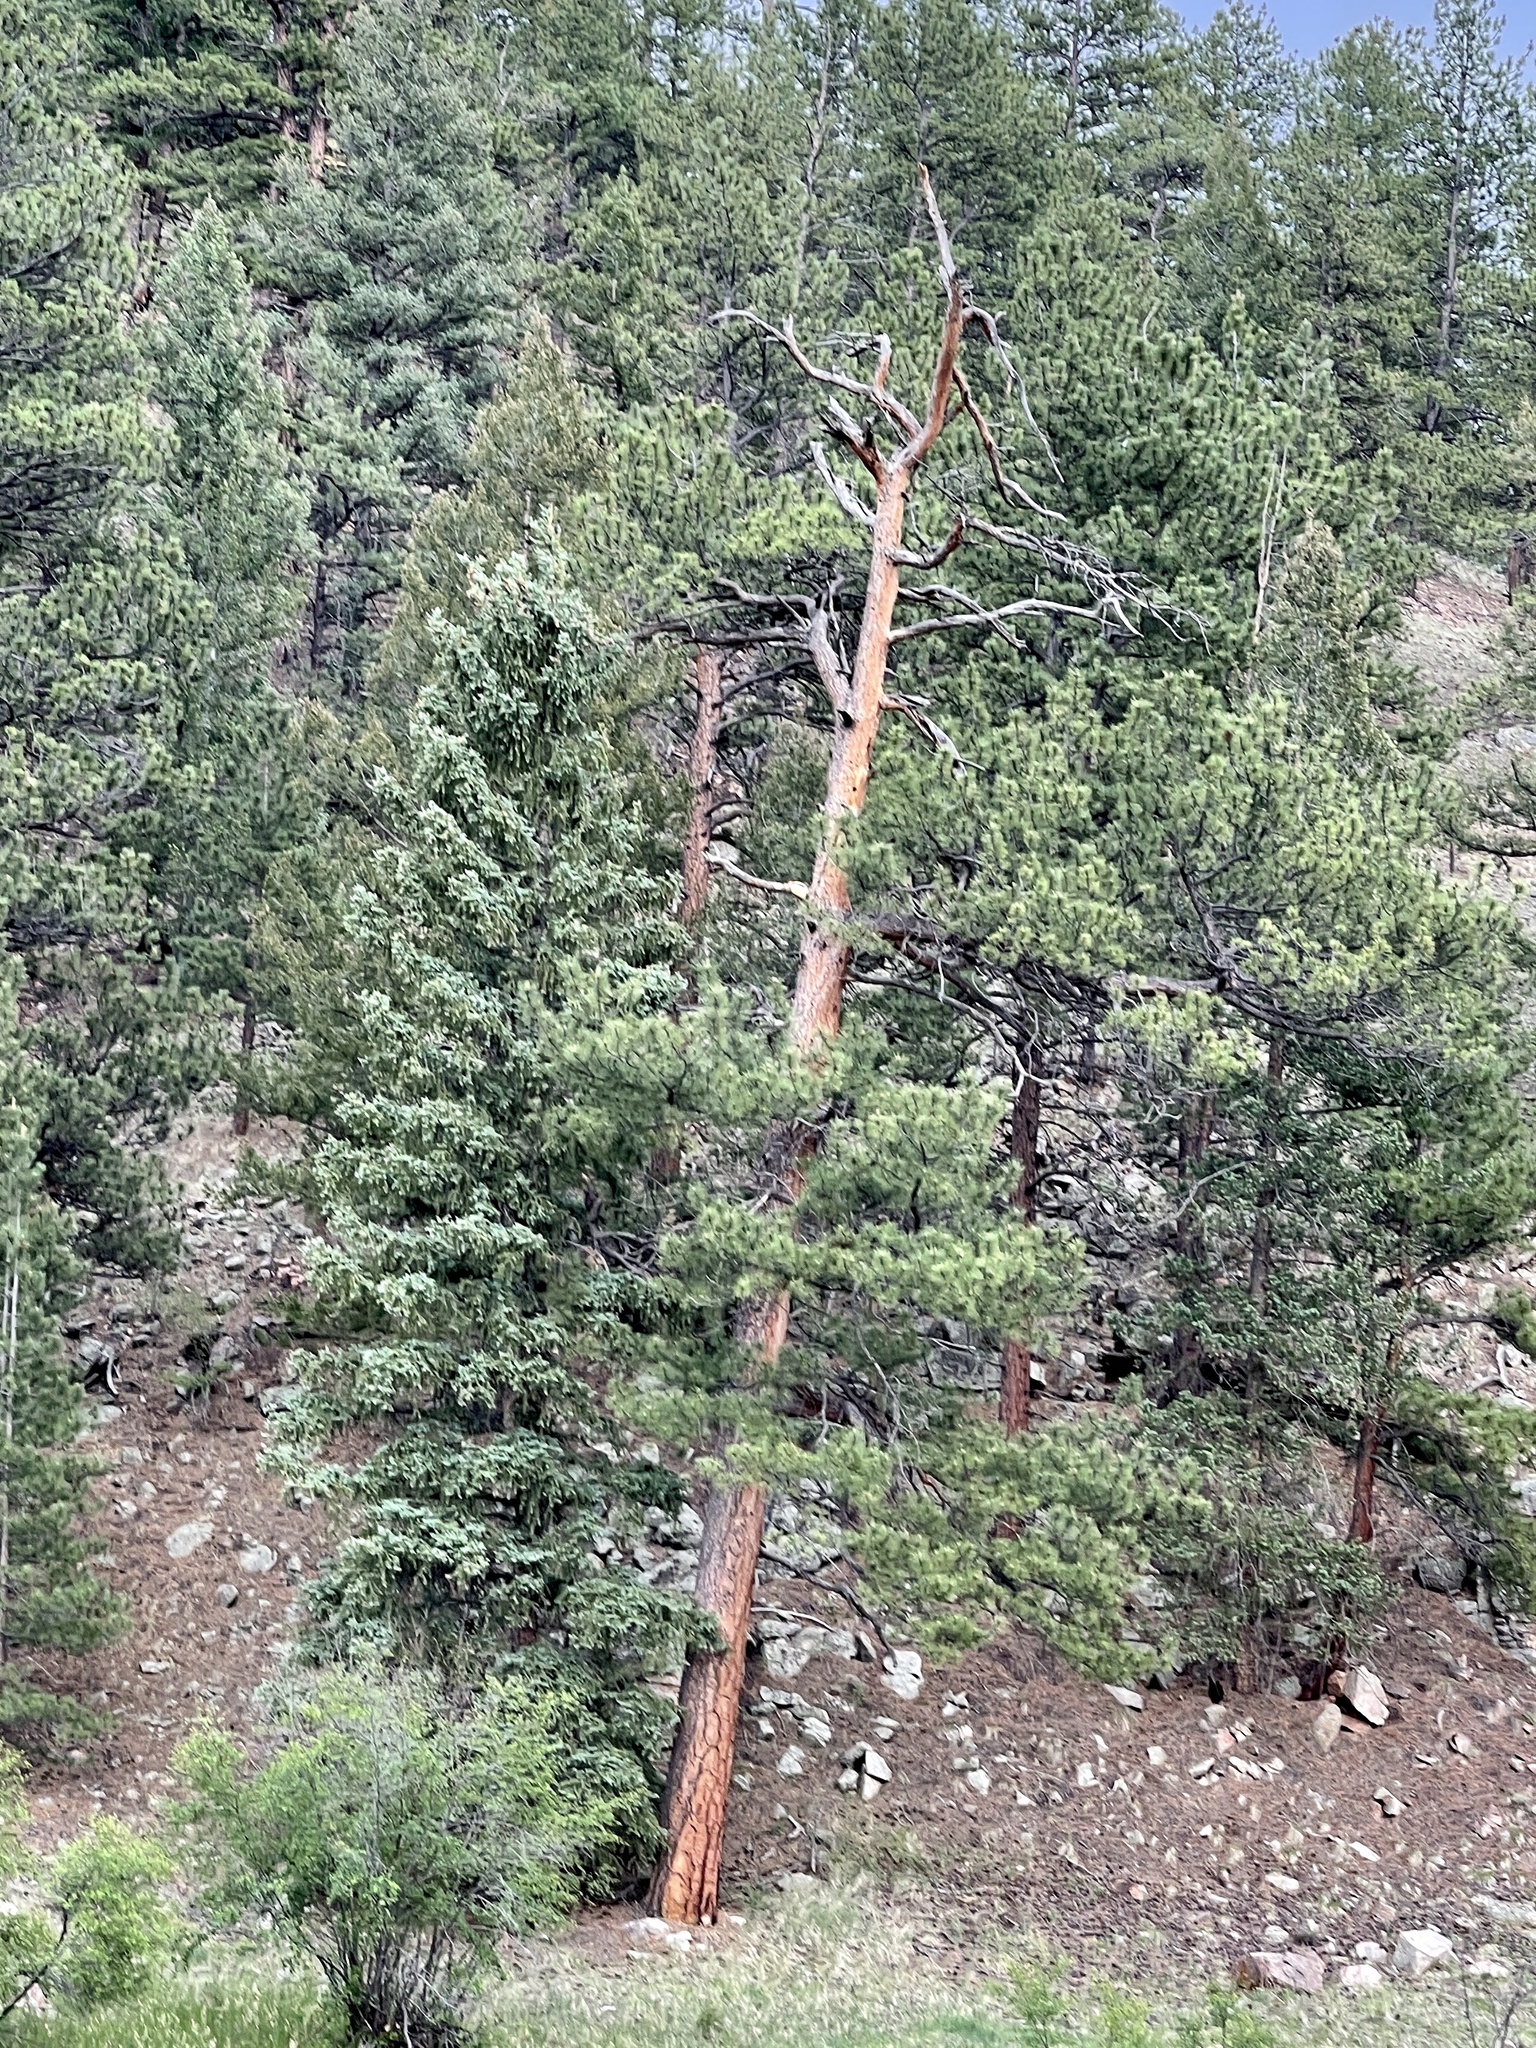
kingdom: Plantae
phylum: Tracheophyta
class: Pinopsida
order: Pinales
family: Pinaceae
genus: Pinus
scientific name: Pinus ponderosa
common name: Western yellow-pine
